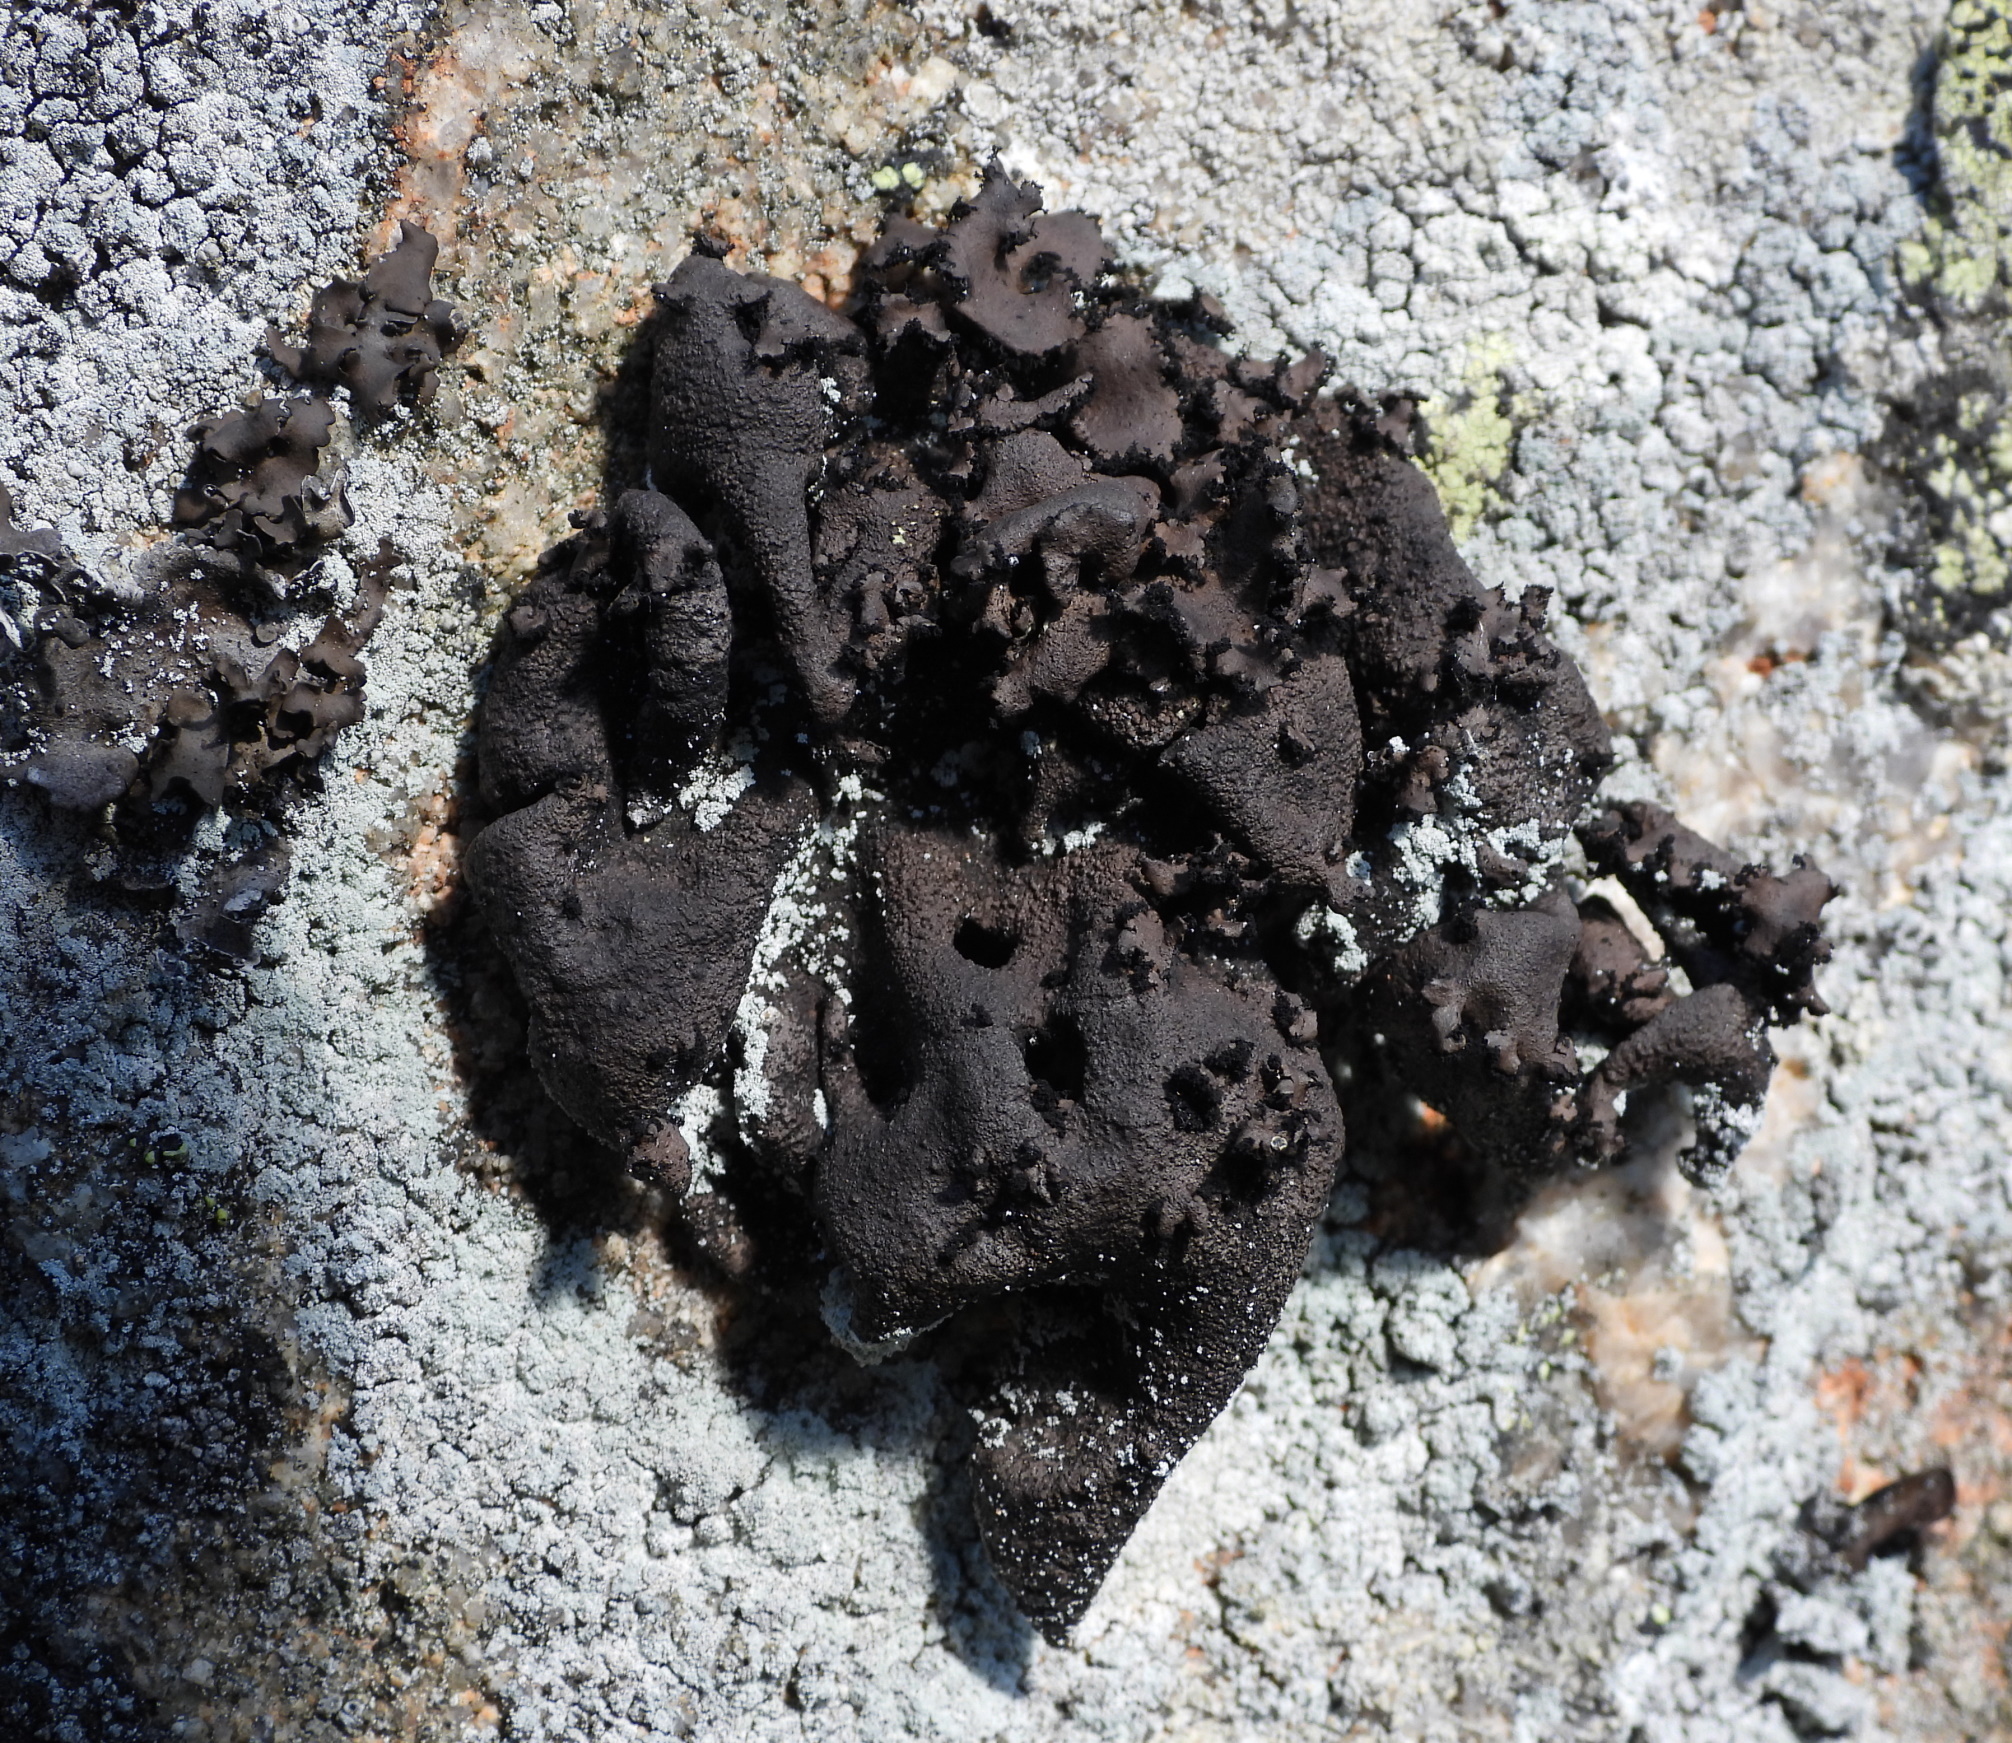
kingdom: Fungi
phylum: Ascomycota
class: Lecanoromycetes
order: Umbilicariales
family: Umbilicariaceae
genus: Umbilicaria
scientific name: Umbilicaria polyrrhiza
